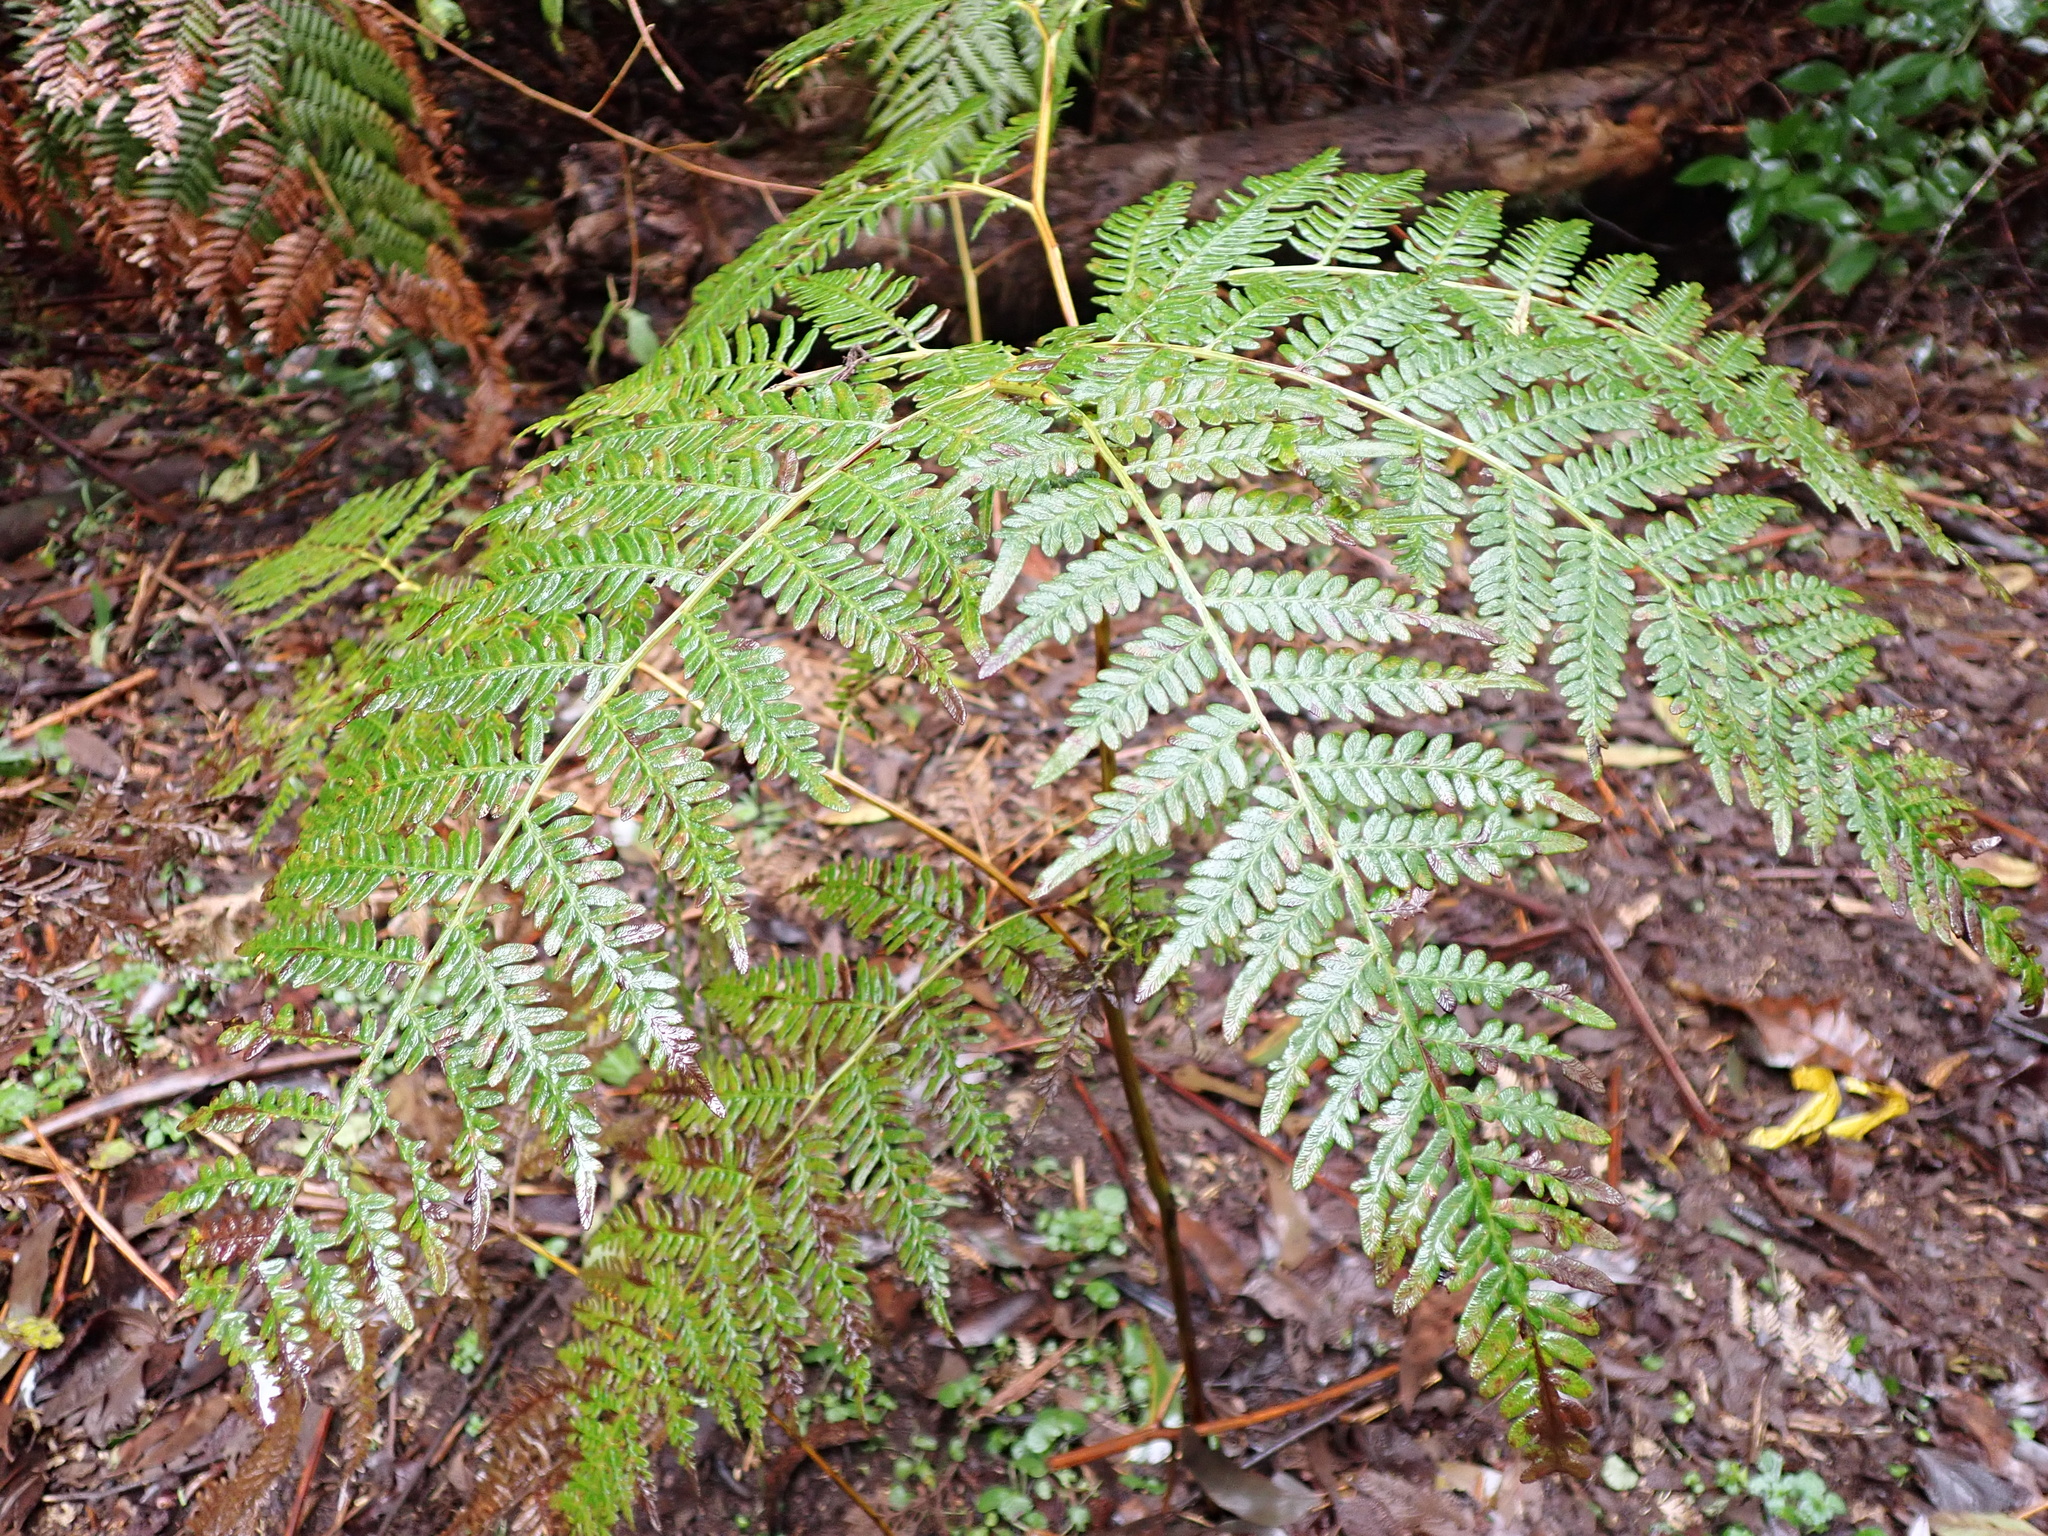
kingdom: Plantae
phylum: Tracheophyta
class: Polypodiopsida
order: Polypodiales
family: Dennstaedtiaceae
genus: Pteridium
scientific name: Pteridium esculentum
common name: Bracken fern
